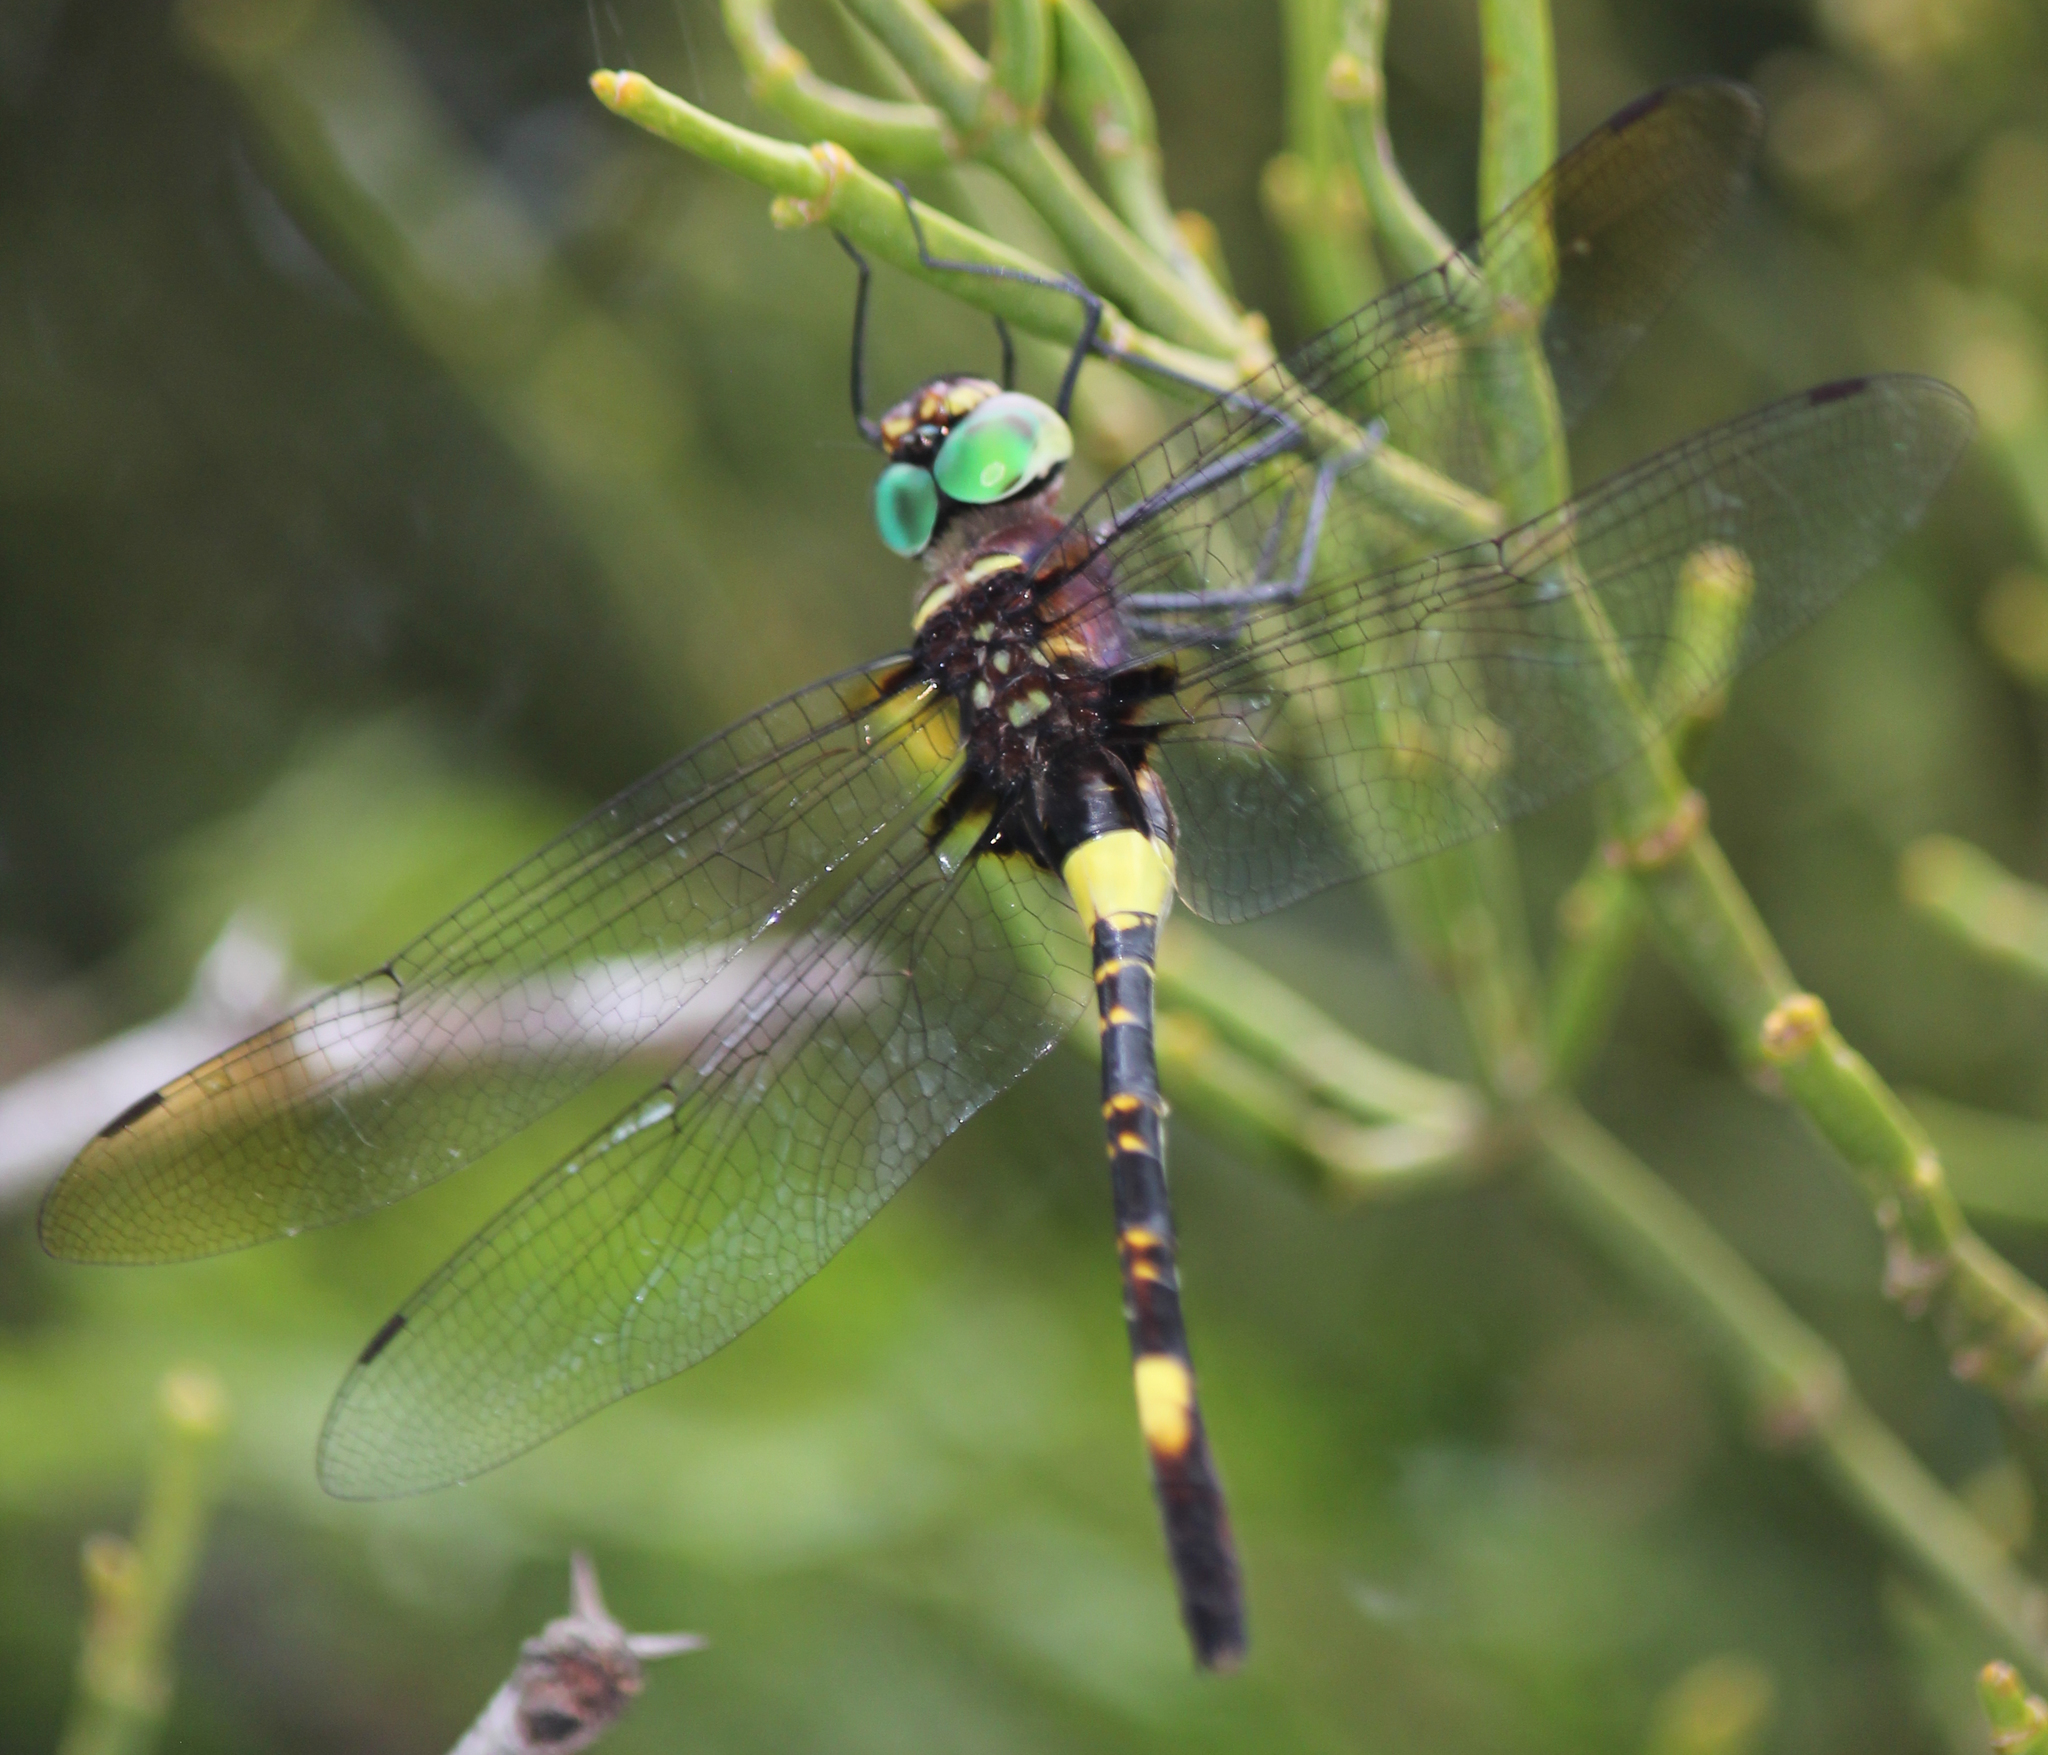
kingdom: Animalia
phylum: Arthropoda
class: Insecta
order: Odonata
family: Macromiidae
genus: Phyllomacromia
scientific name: Phyllomacromia contumax
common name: Two-banded cruiser
